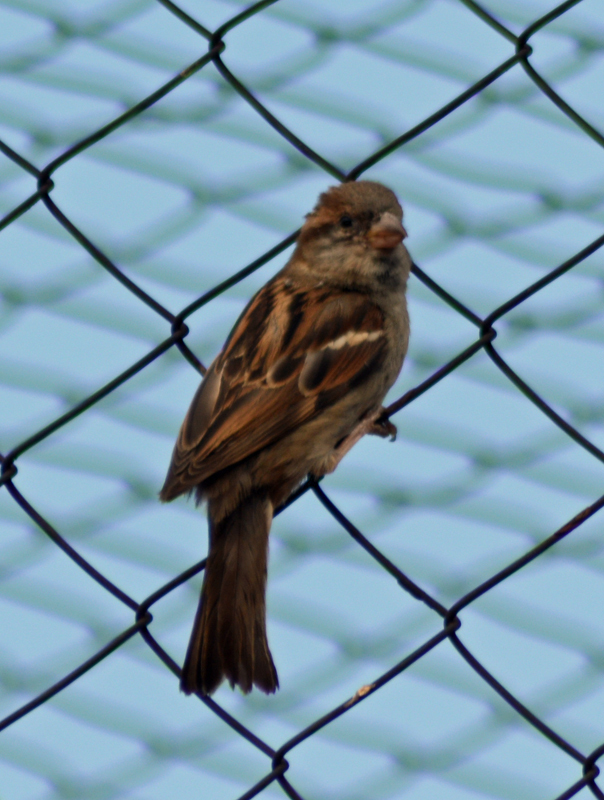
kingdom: Animalia
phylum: Chordata
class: Aves
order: Passeriformes
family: Passeridae
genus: Passer
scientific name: Passer domesticus
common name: House sparrow
